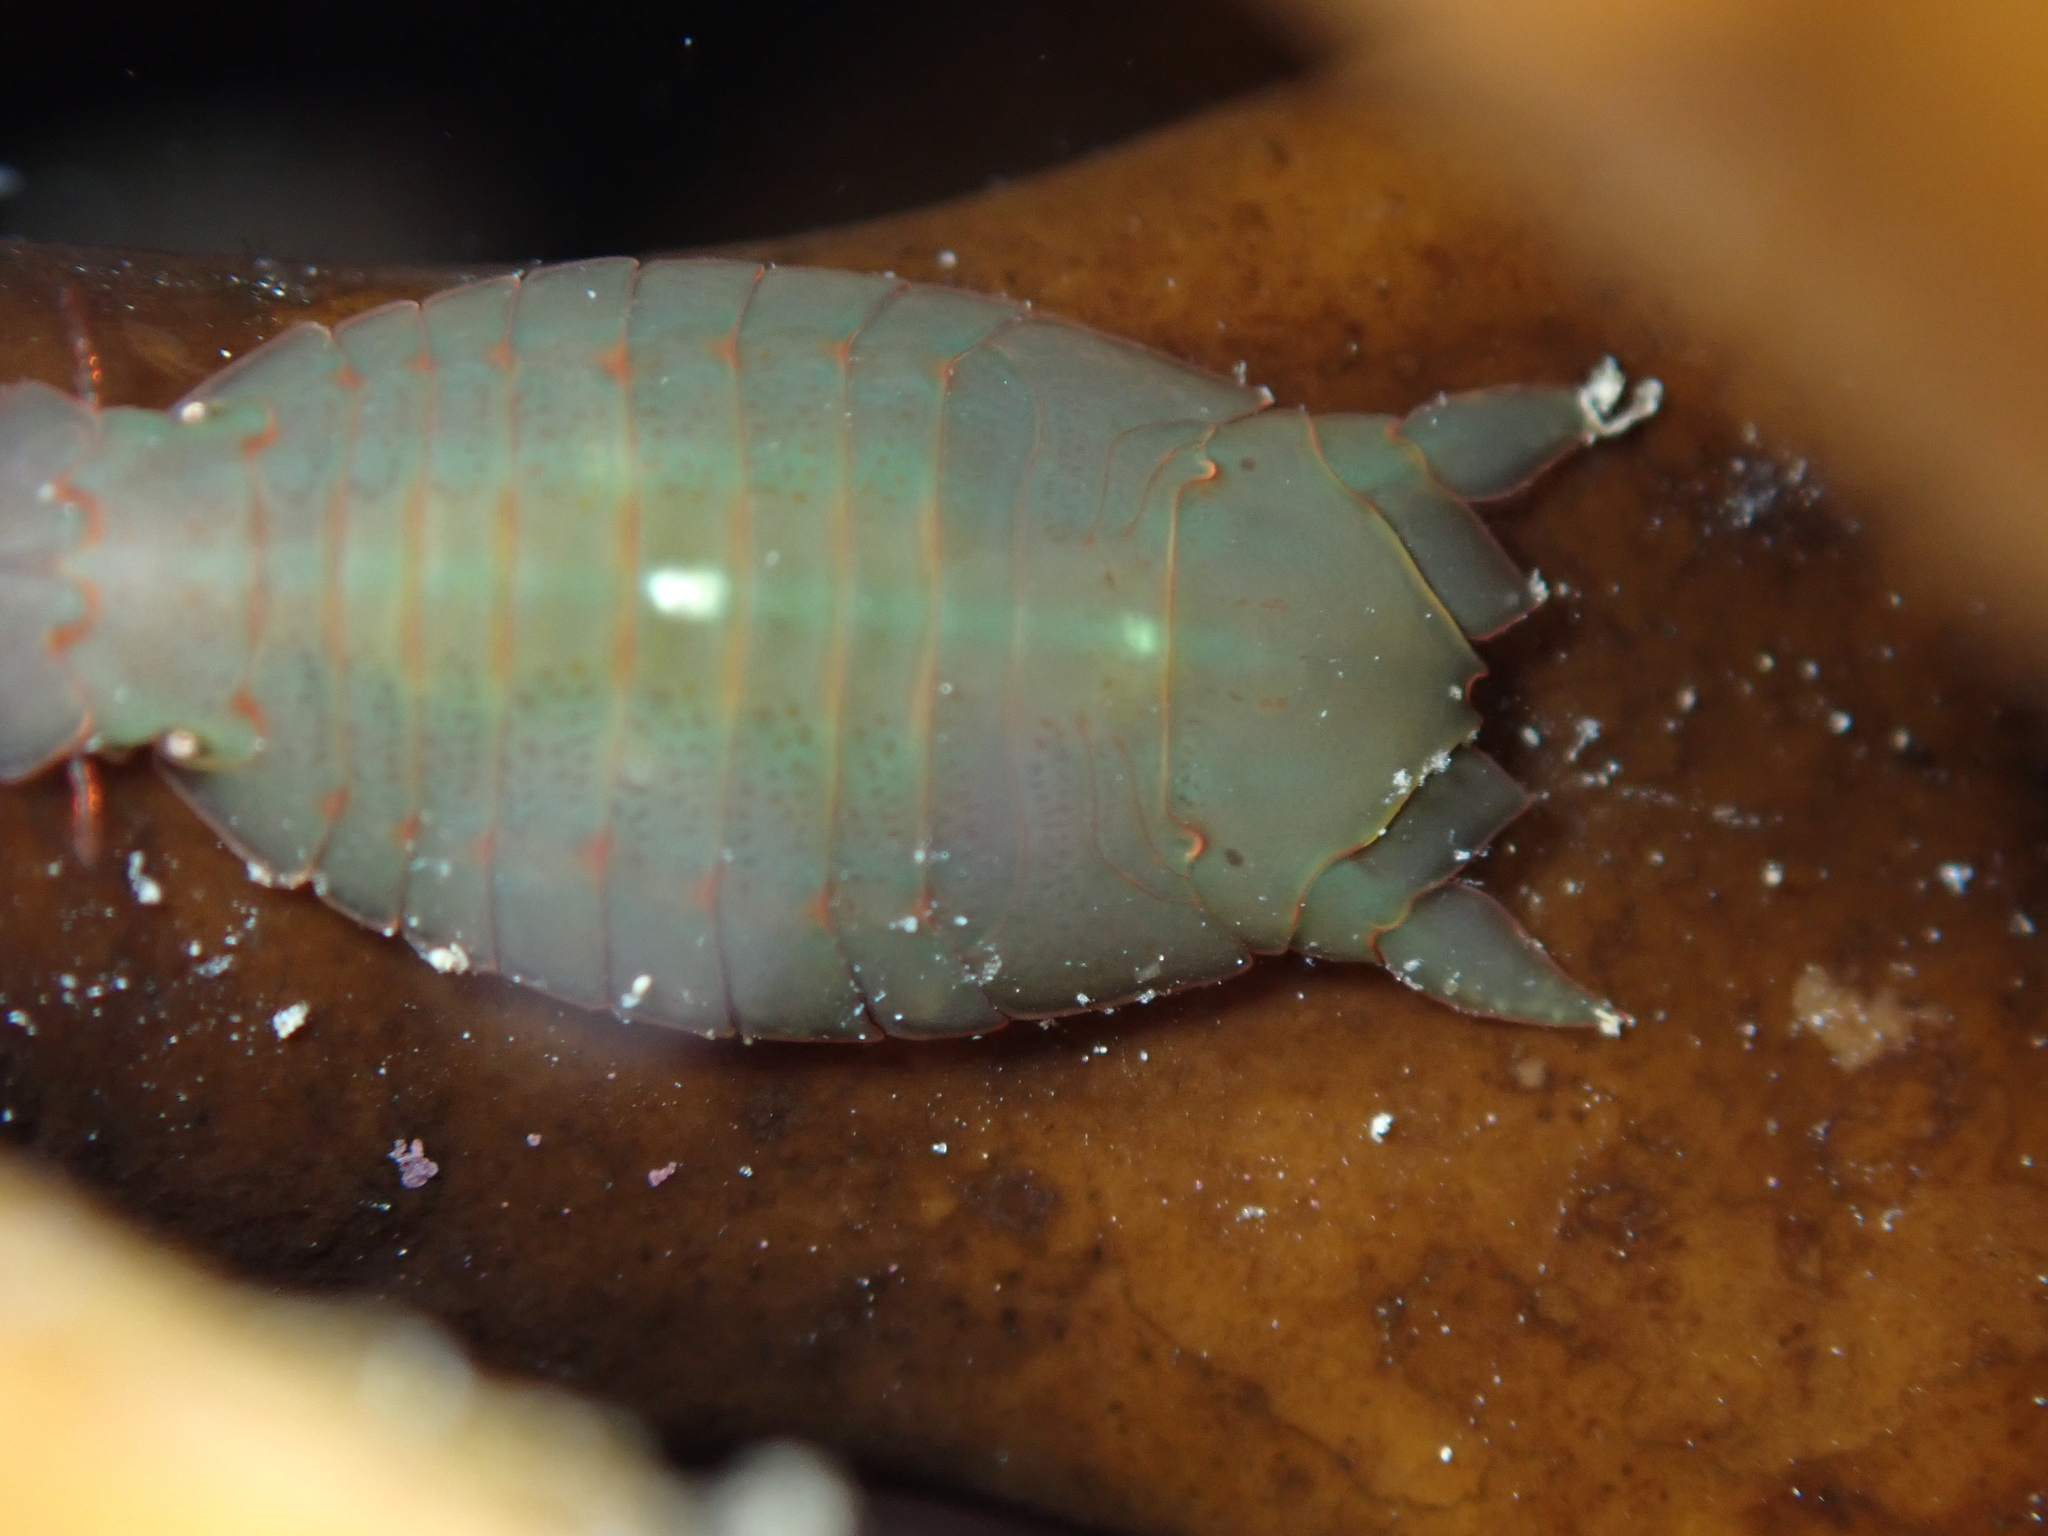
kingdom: Animalia
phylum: Arthropoda
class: Malacostraca
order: Isopoda
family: Sphaeromatidae
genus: Amphoroidea
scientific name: Amphoroidea media
